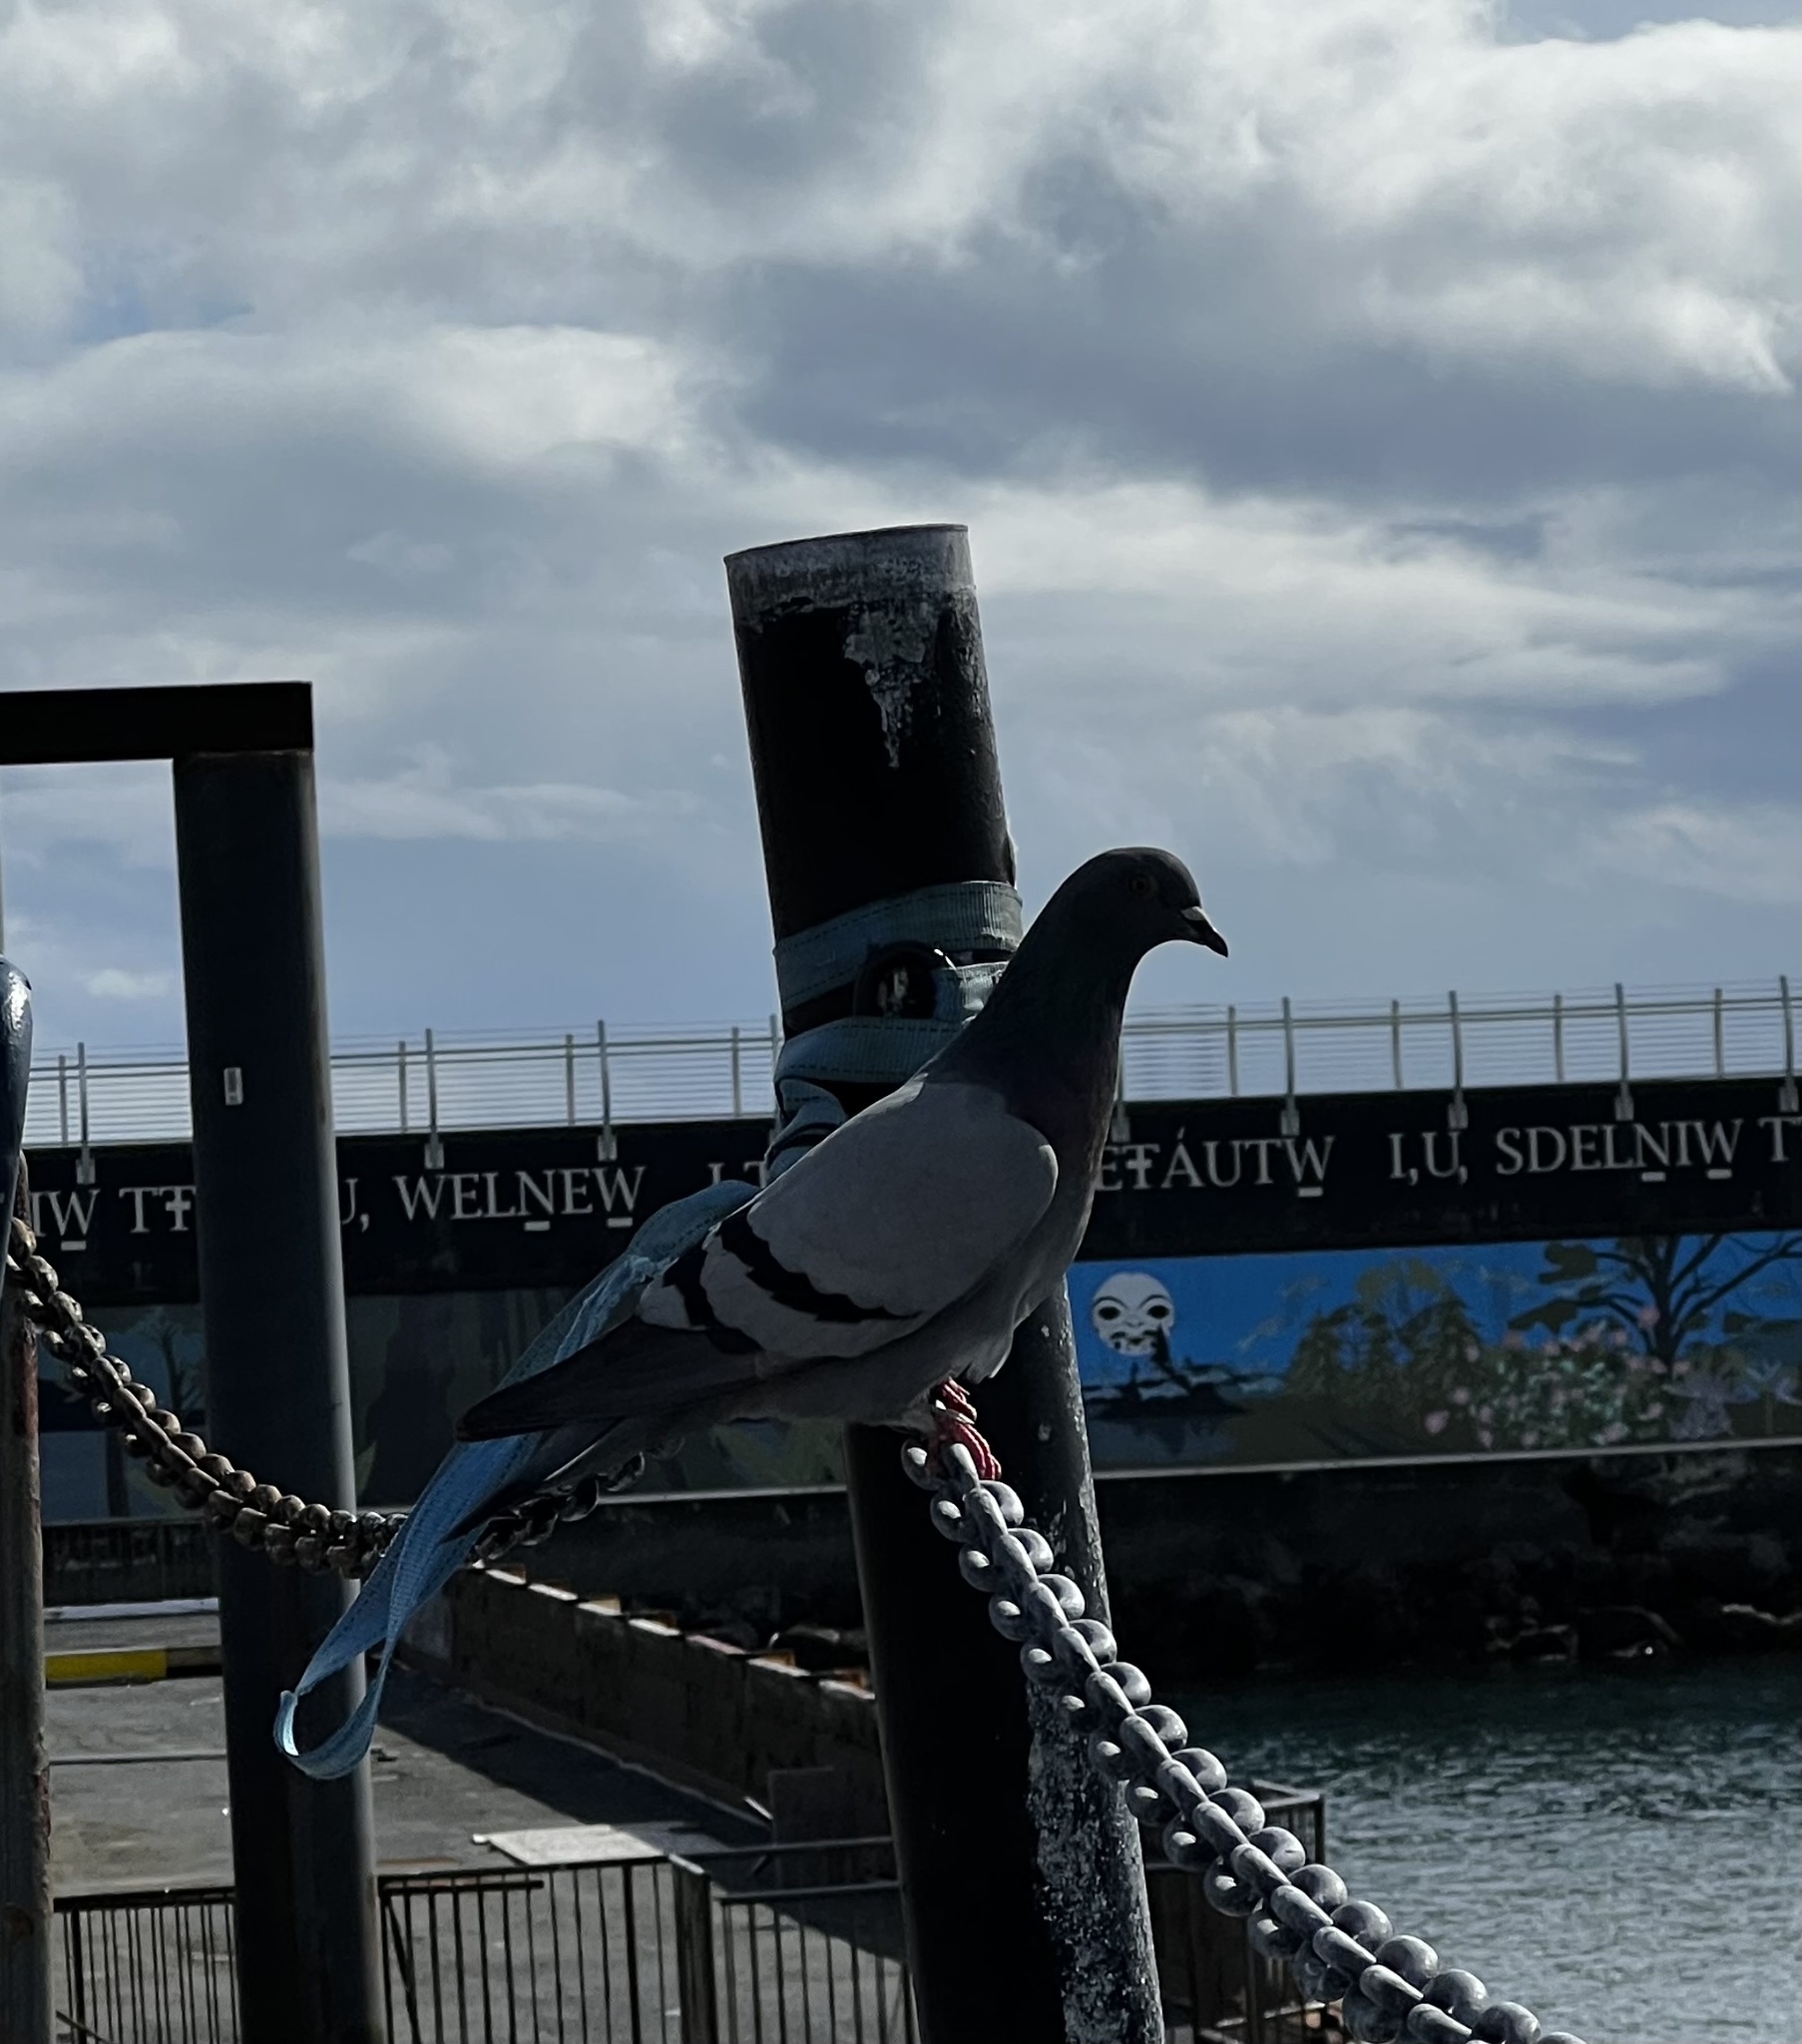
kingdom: Animalia
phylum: Chordata
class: Aves
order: Columbiformes
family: Columbidae
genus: Columba
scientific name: Columba livia
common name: Rock pigeon
